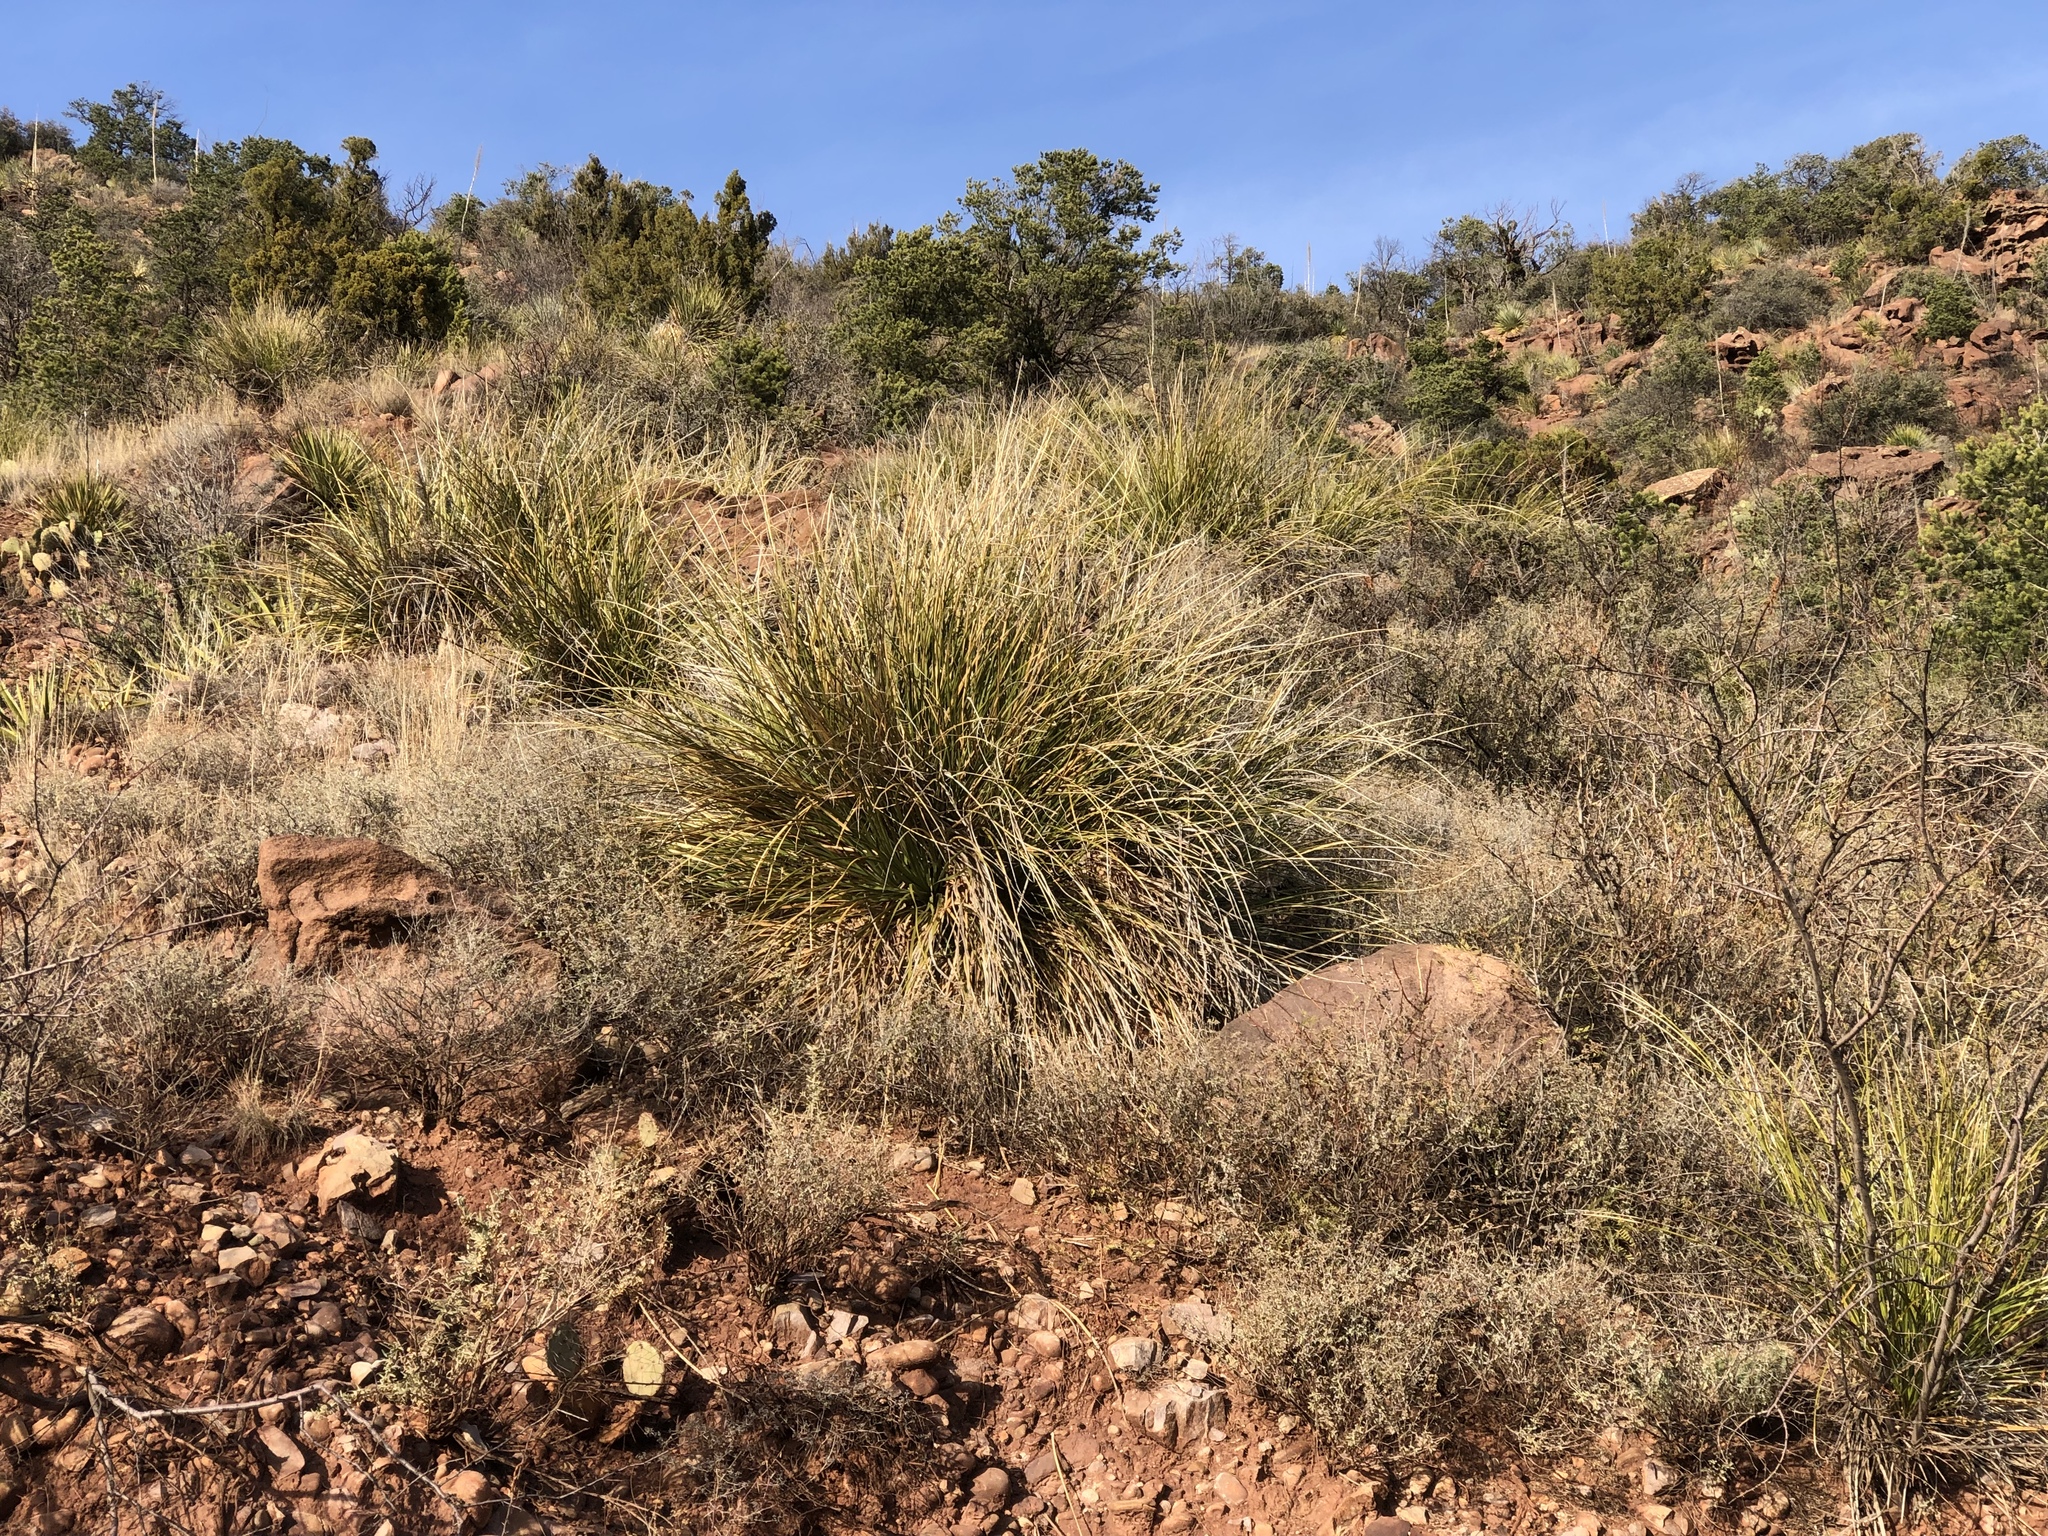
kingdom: Plantae
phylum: Tracheophyta
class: Liliopsida
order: Asparagales
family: Asparagaceae
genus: Nolina
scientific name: Nolina microcarpa
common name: Bear-grass
